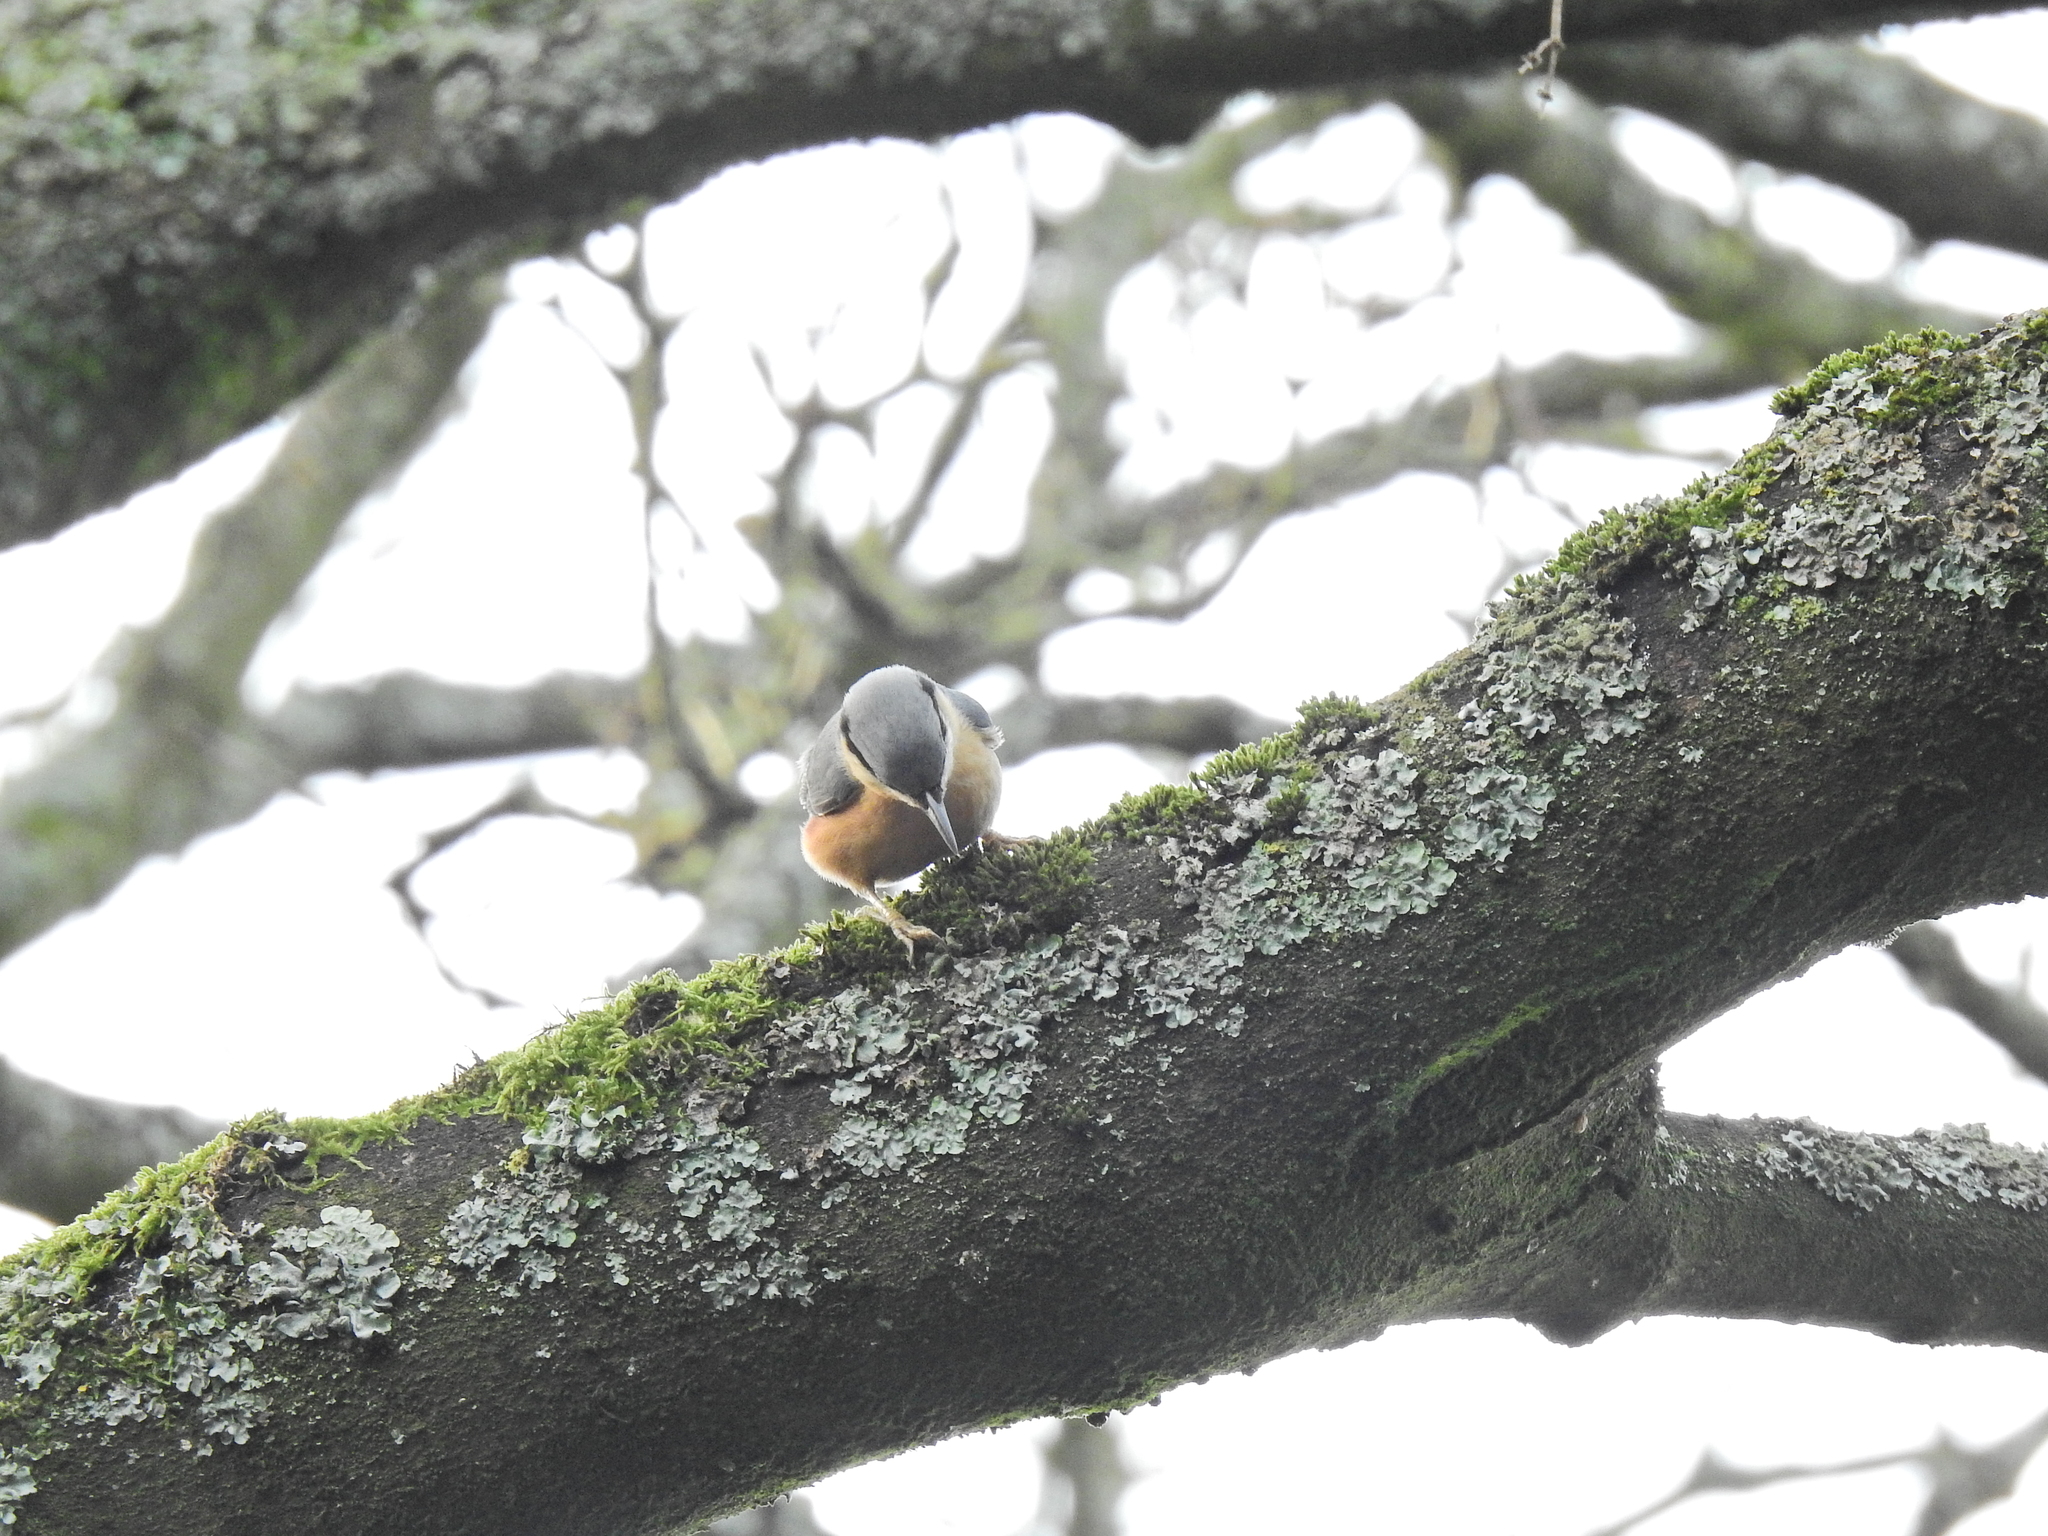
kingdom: Animalia
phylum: Chordata
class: Aves
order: Passeriformes
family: Sittidae
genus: Sitta
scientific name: Sitta europaea
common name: Eurasian nuthatch
